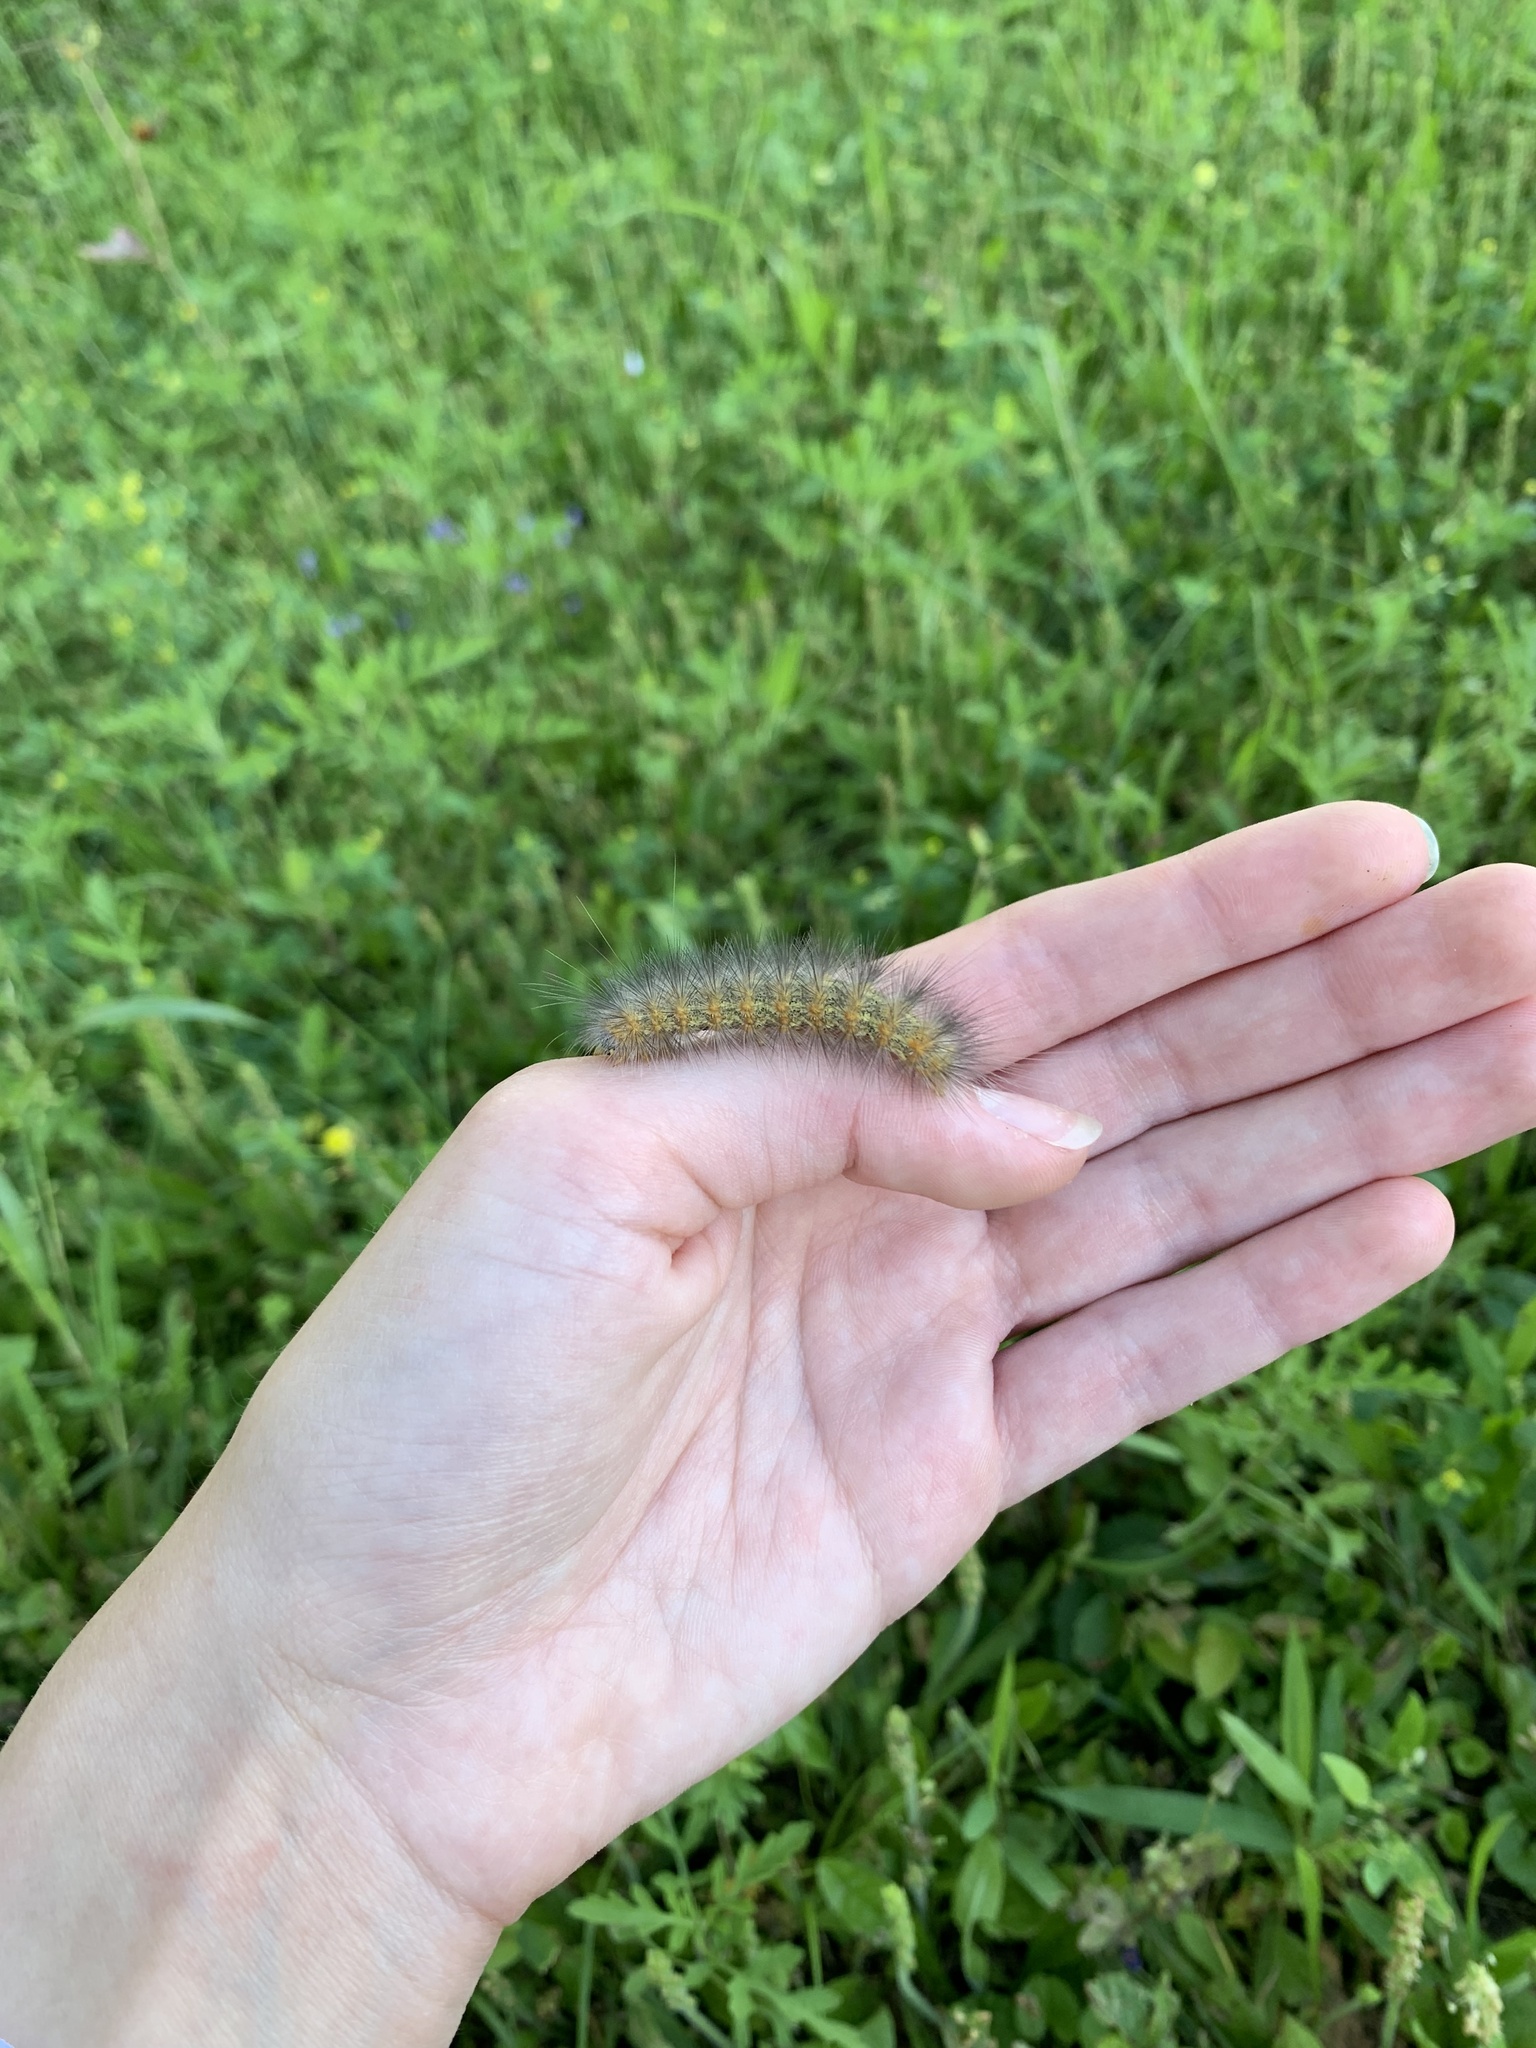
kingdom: Animalia
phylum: Arthropoda
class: Insecta
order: Lepidoptera
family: Erebidae
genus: Spilosoma
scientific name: Spilosoma virginica
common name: Virginia tiger moth
